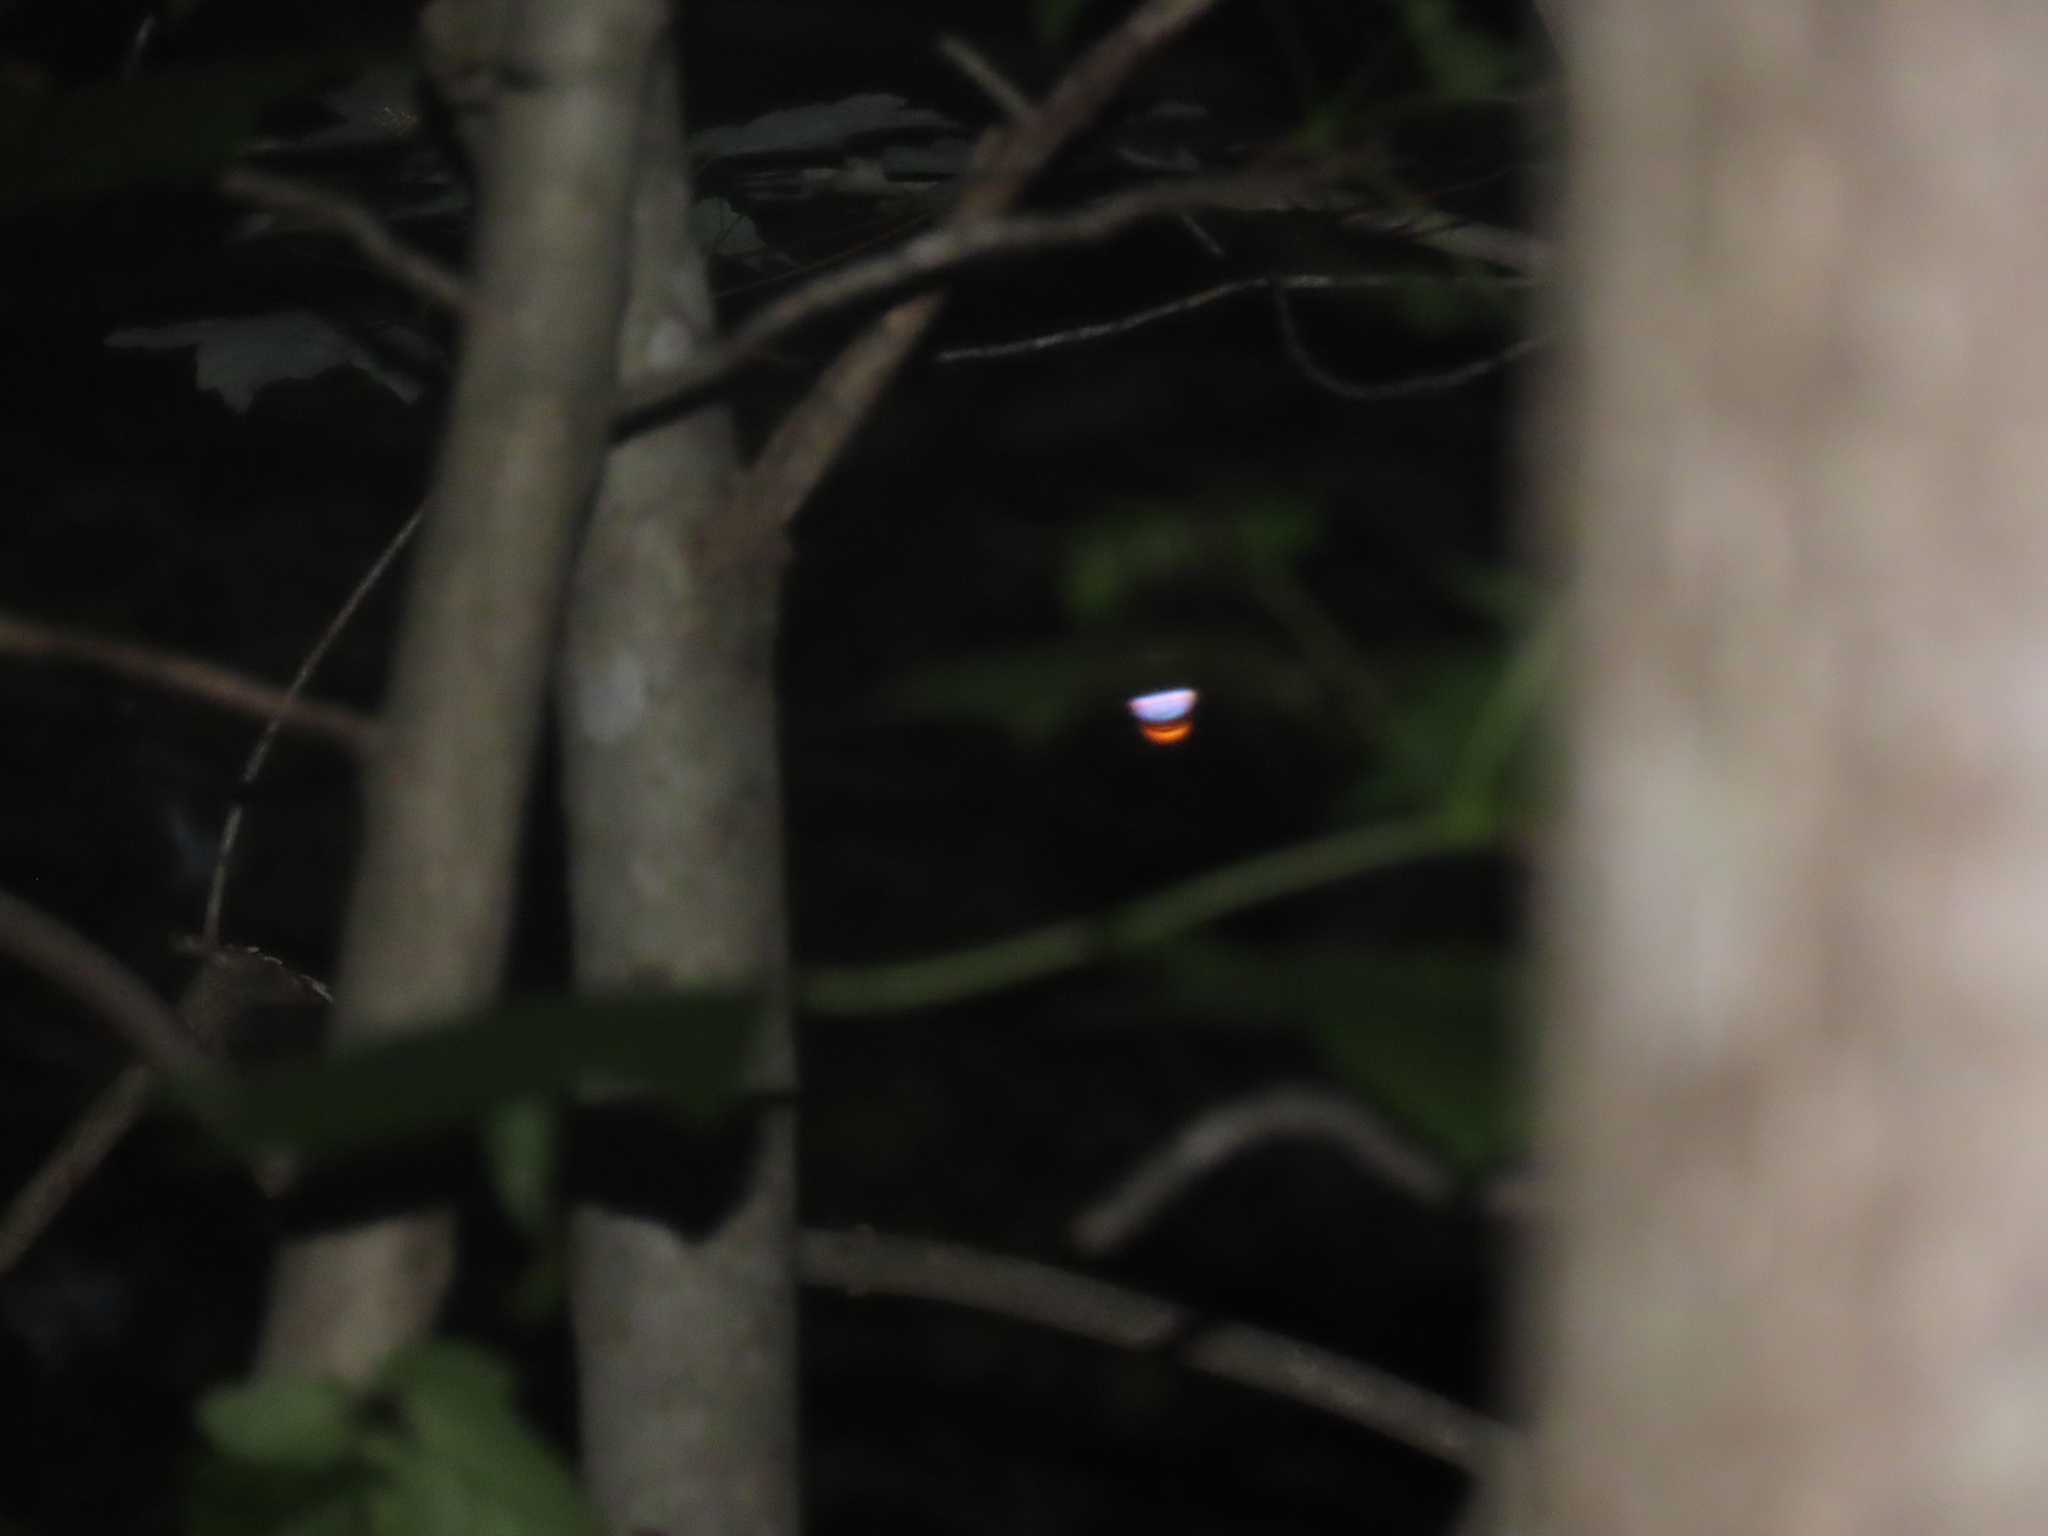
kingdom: Animalia
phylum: Chordata
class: Aves
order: Caprimulgiformes
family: Caprimulgidae
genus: Antrostomus
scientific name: Antrostomus carolinensis
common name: Chuck-will's-widow
